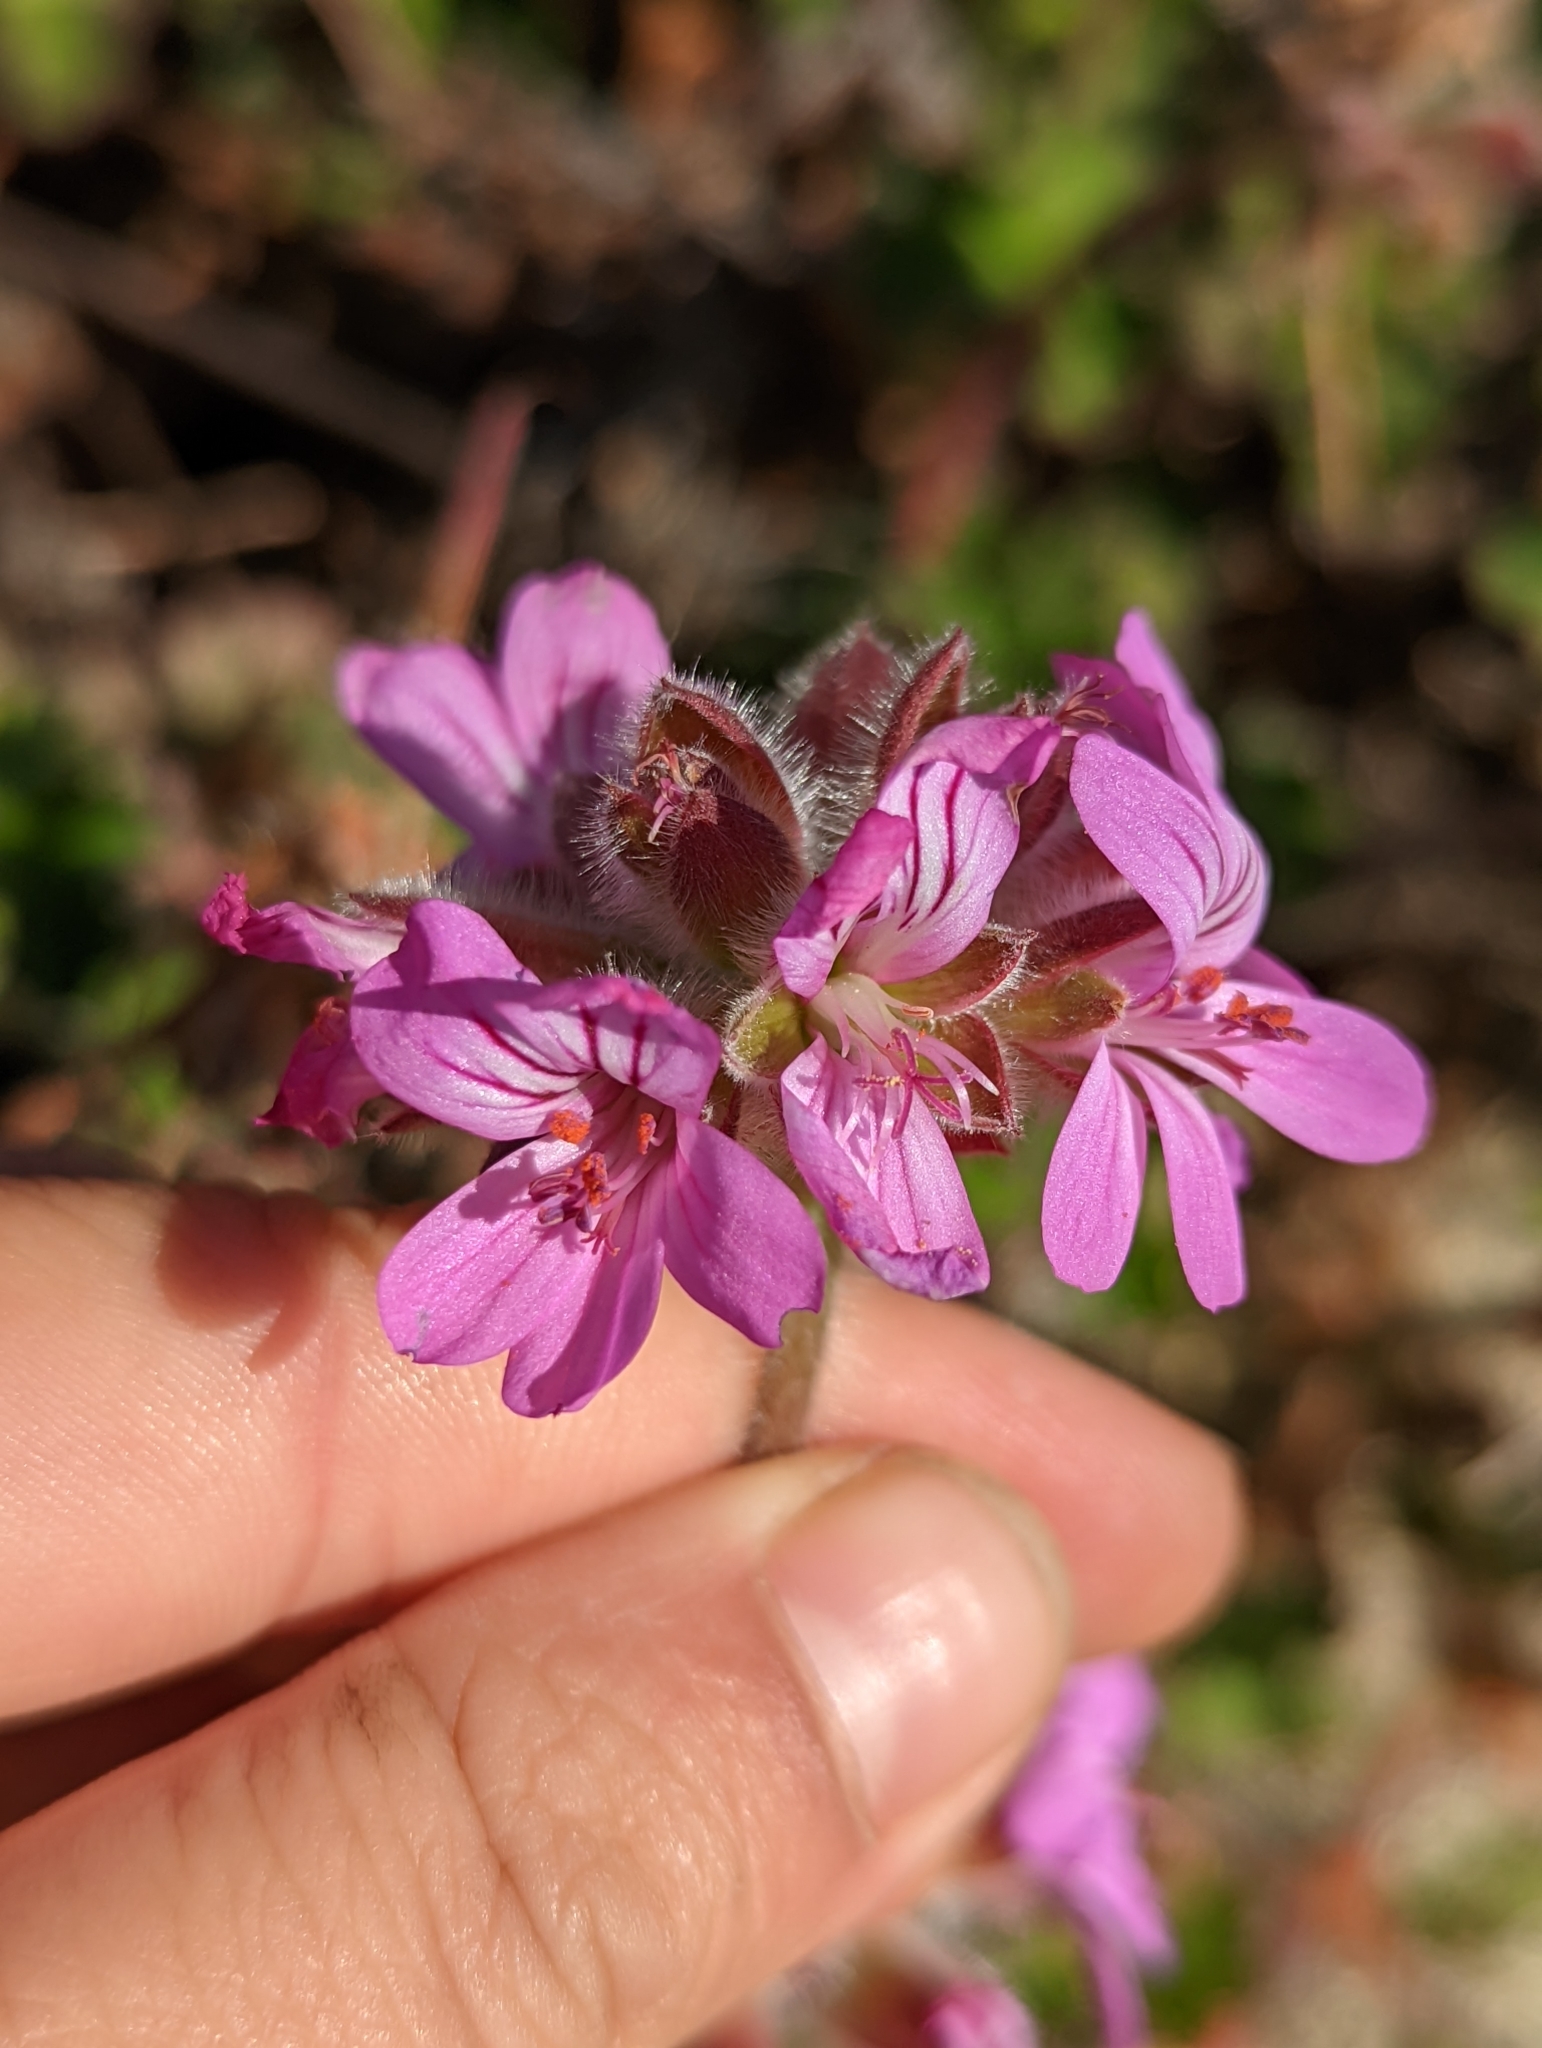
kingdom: Plantae
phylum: Tracheophyta
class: Magnoliopsida
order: Geraniales
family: Geraniaceae
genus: Pelargonium
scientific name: Pelargonium capitatum
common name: Rose scented geranium
